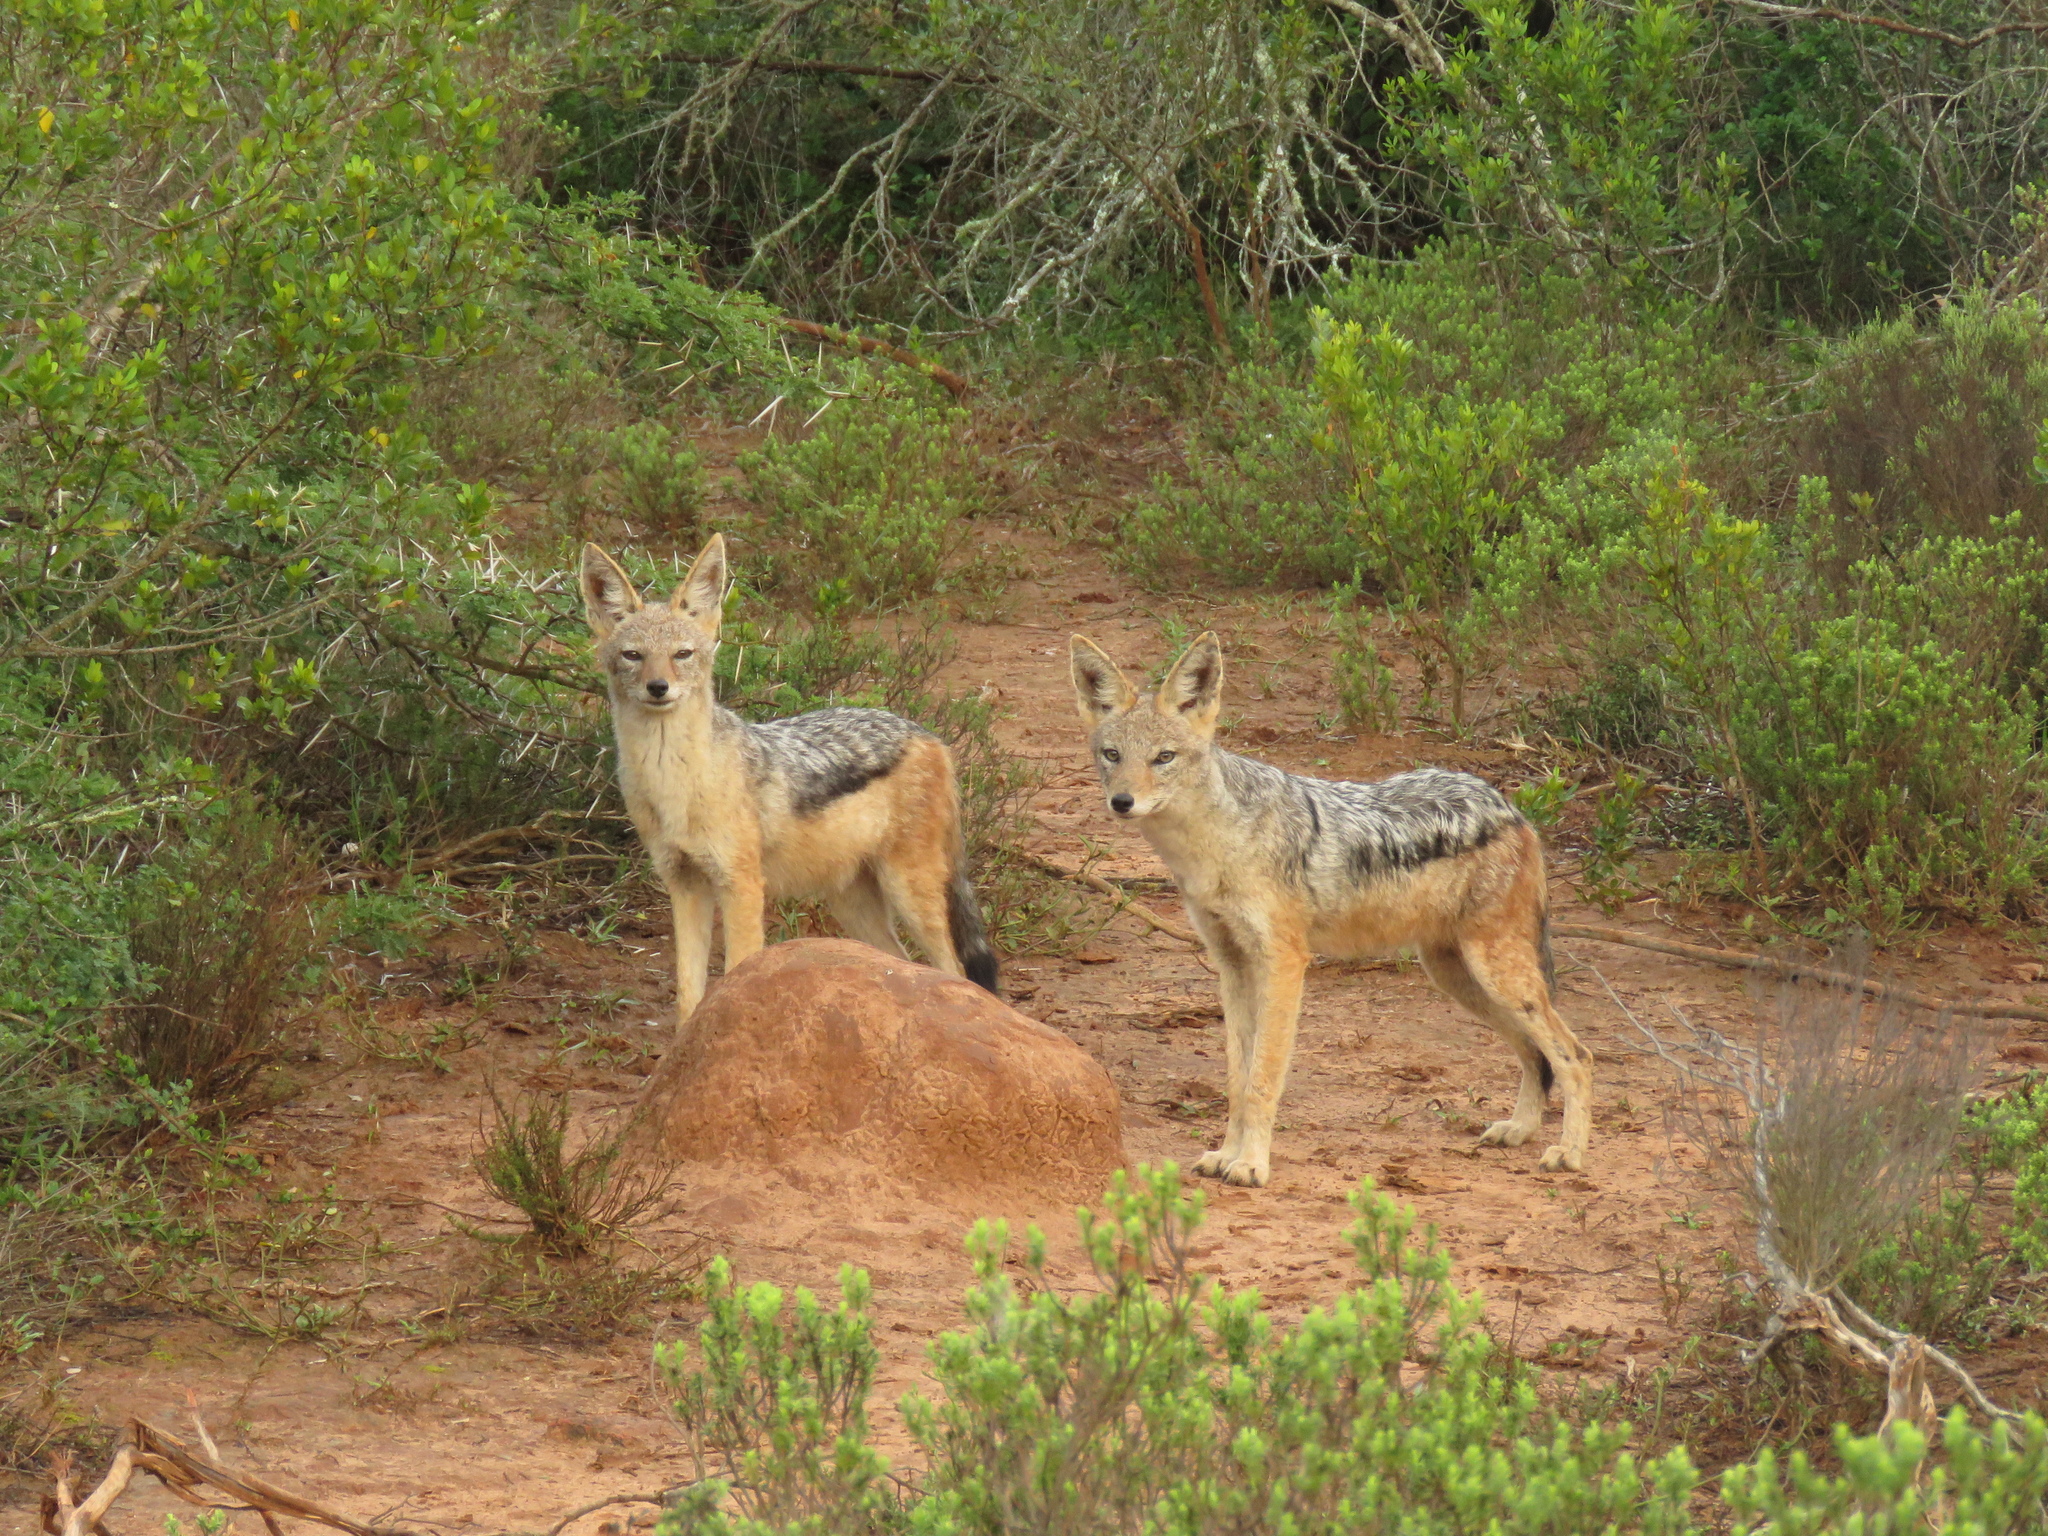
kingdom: Animalia
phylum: Chordata
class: Mammalia
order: Carnivora
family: Canidae
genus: Lupulella
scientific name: Lupulella
